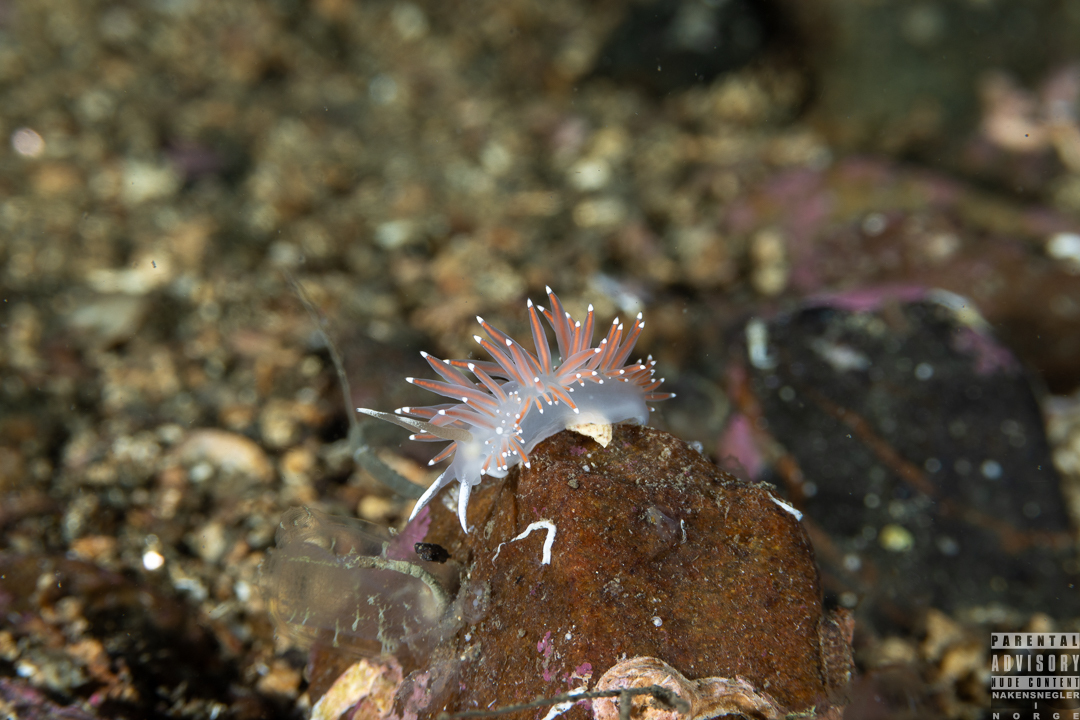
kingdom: Animalia
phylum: Mollusca
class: Gastropoda
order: Nudibranchia
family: Coryphellidae
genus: Coryphella
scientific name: Coryphella browni
